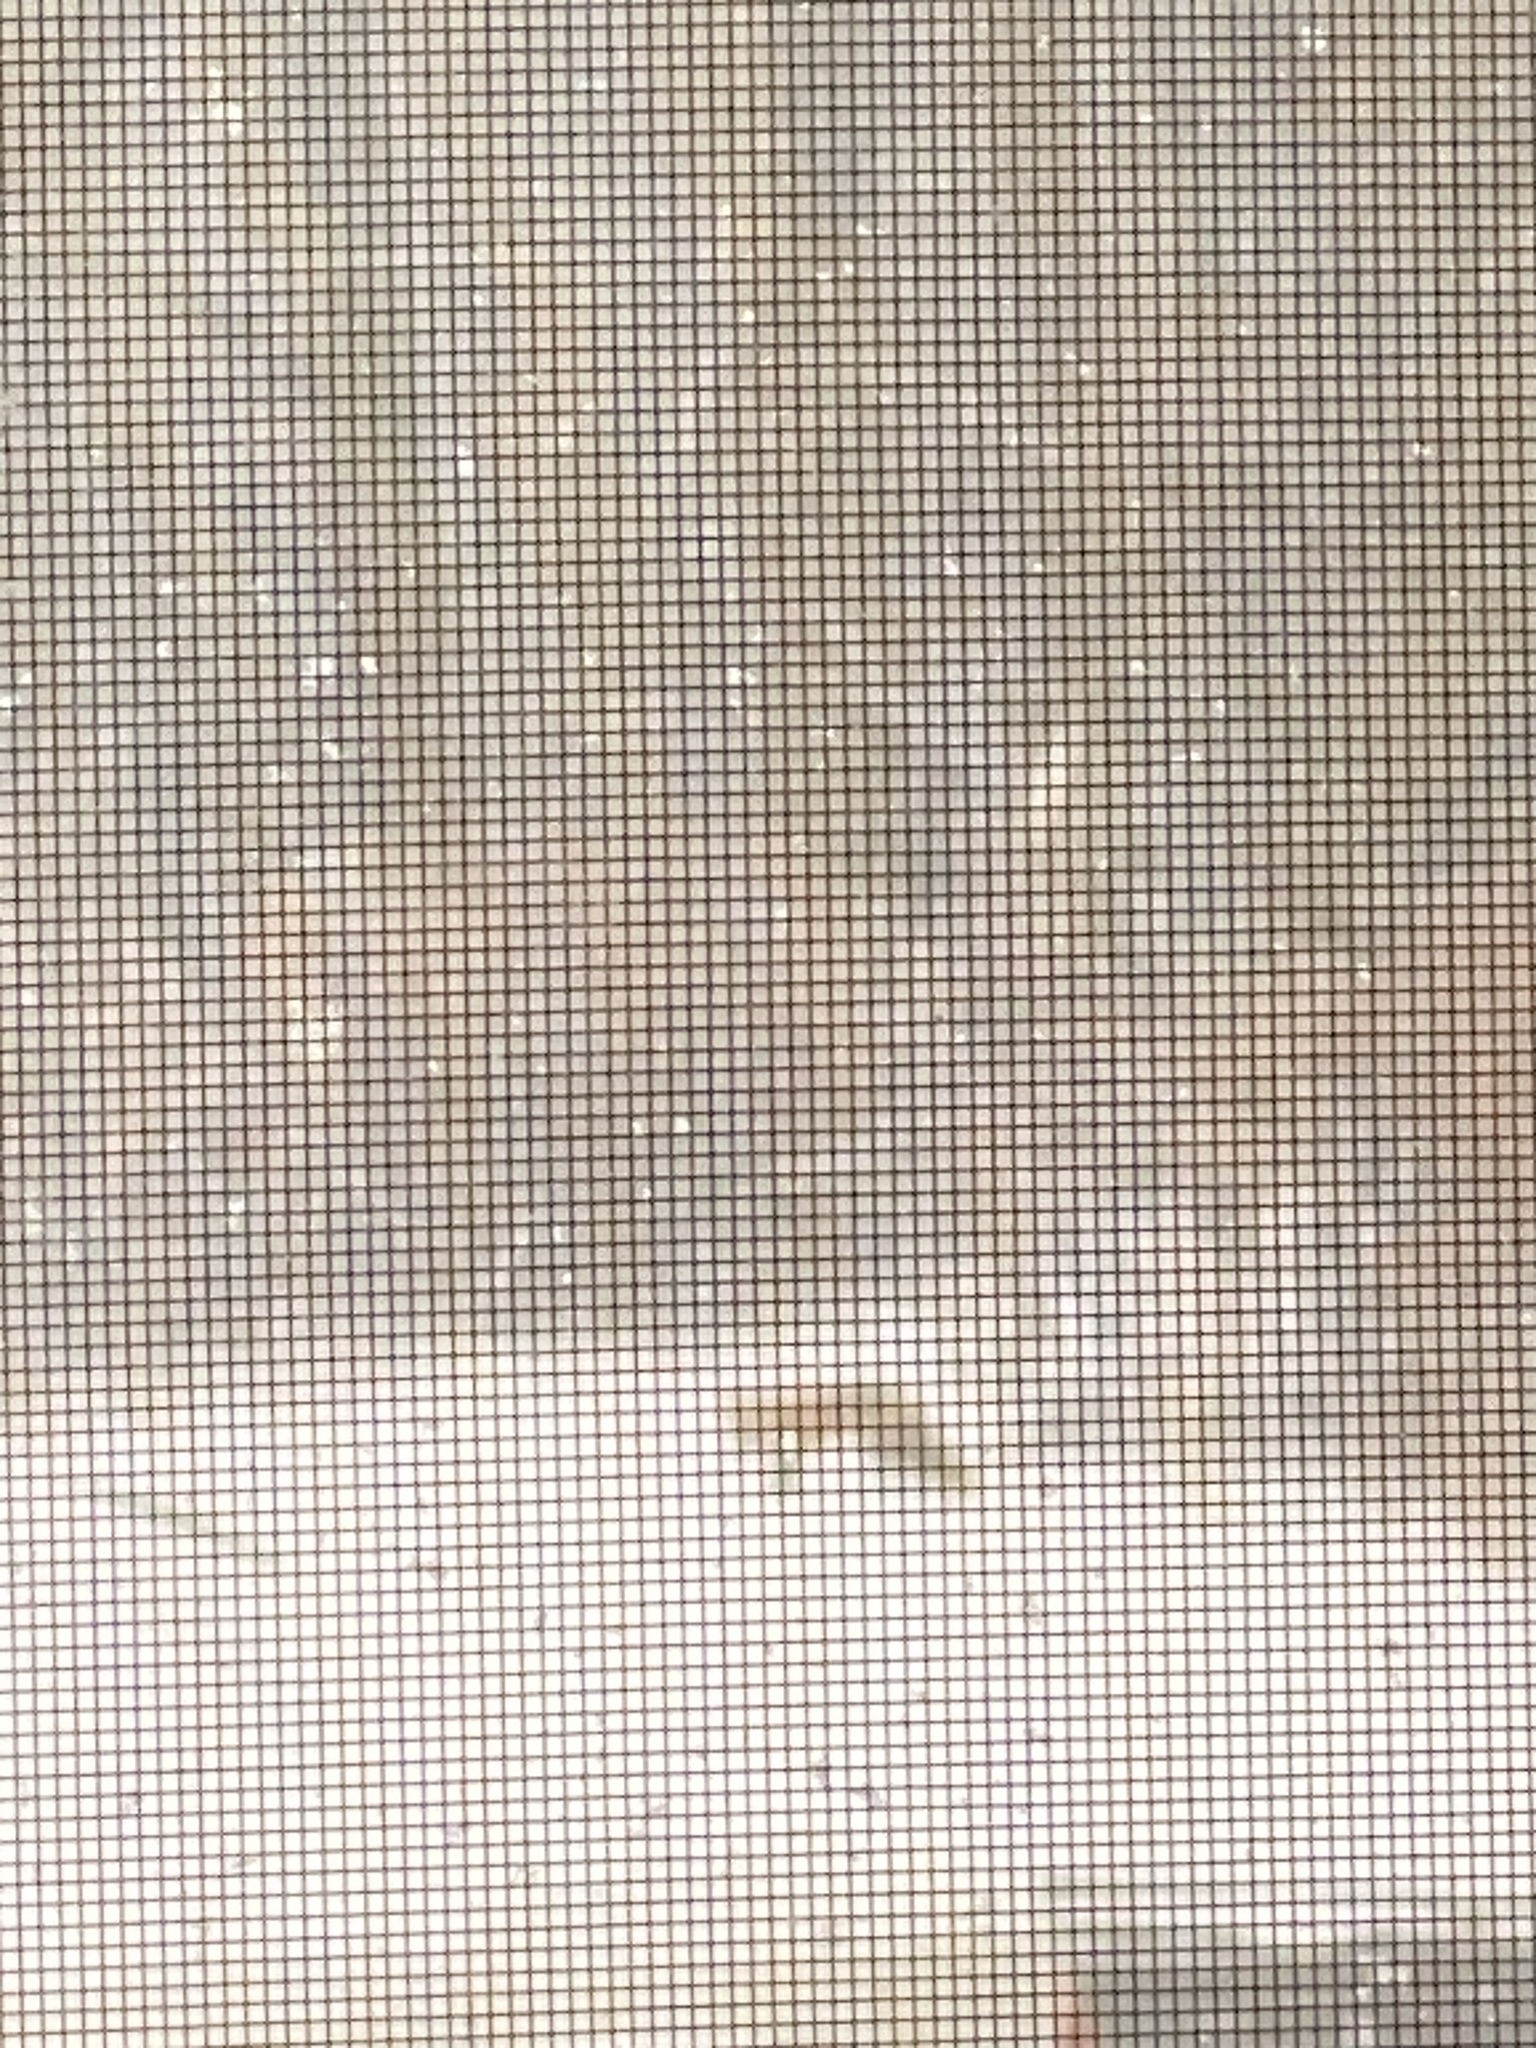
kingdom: Animalia
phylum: Chordata
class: Mammalia
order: Carnivora
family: Canidae
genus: Vulpes
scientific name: Vulpes vulpes
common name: Red fox
